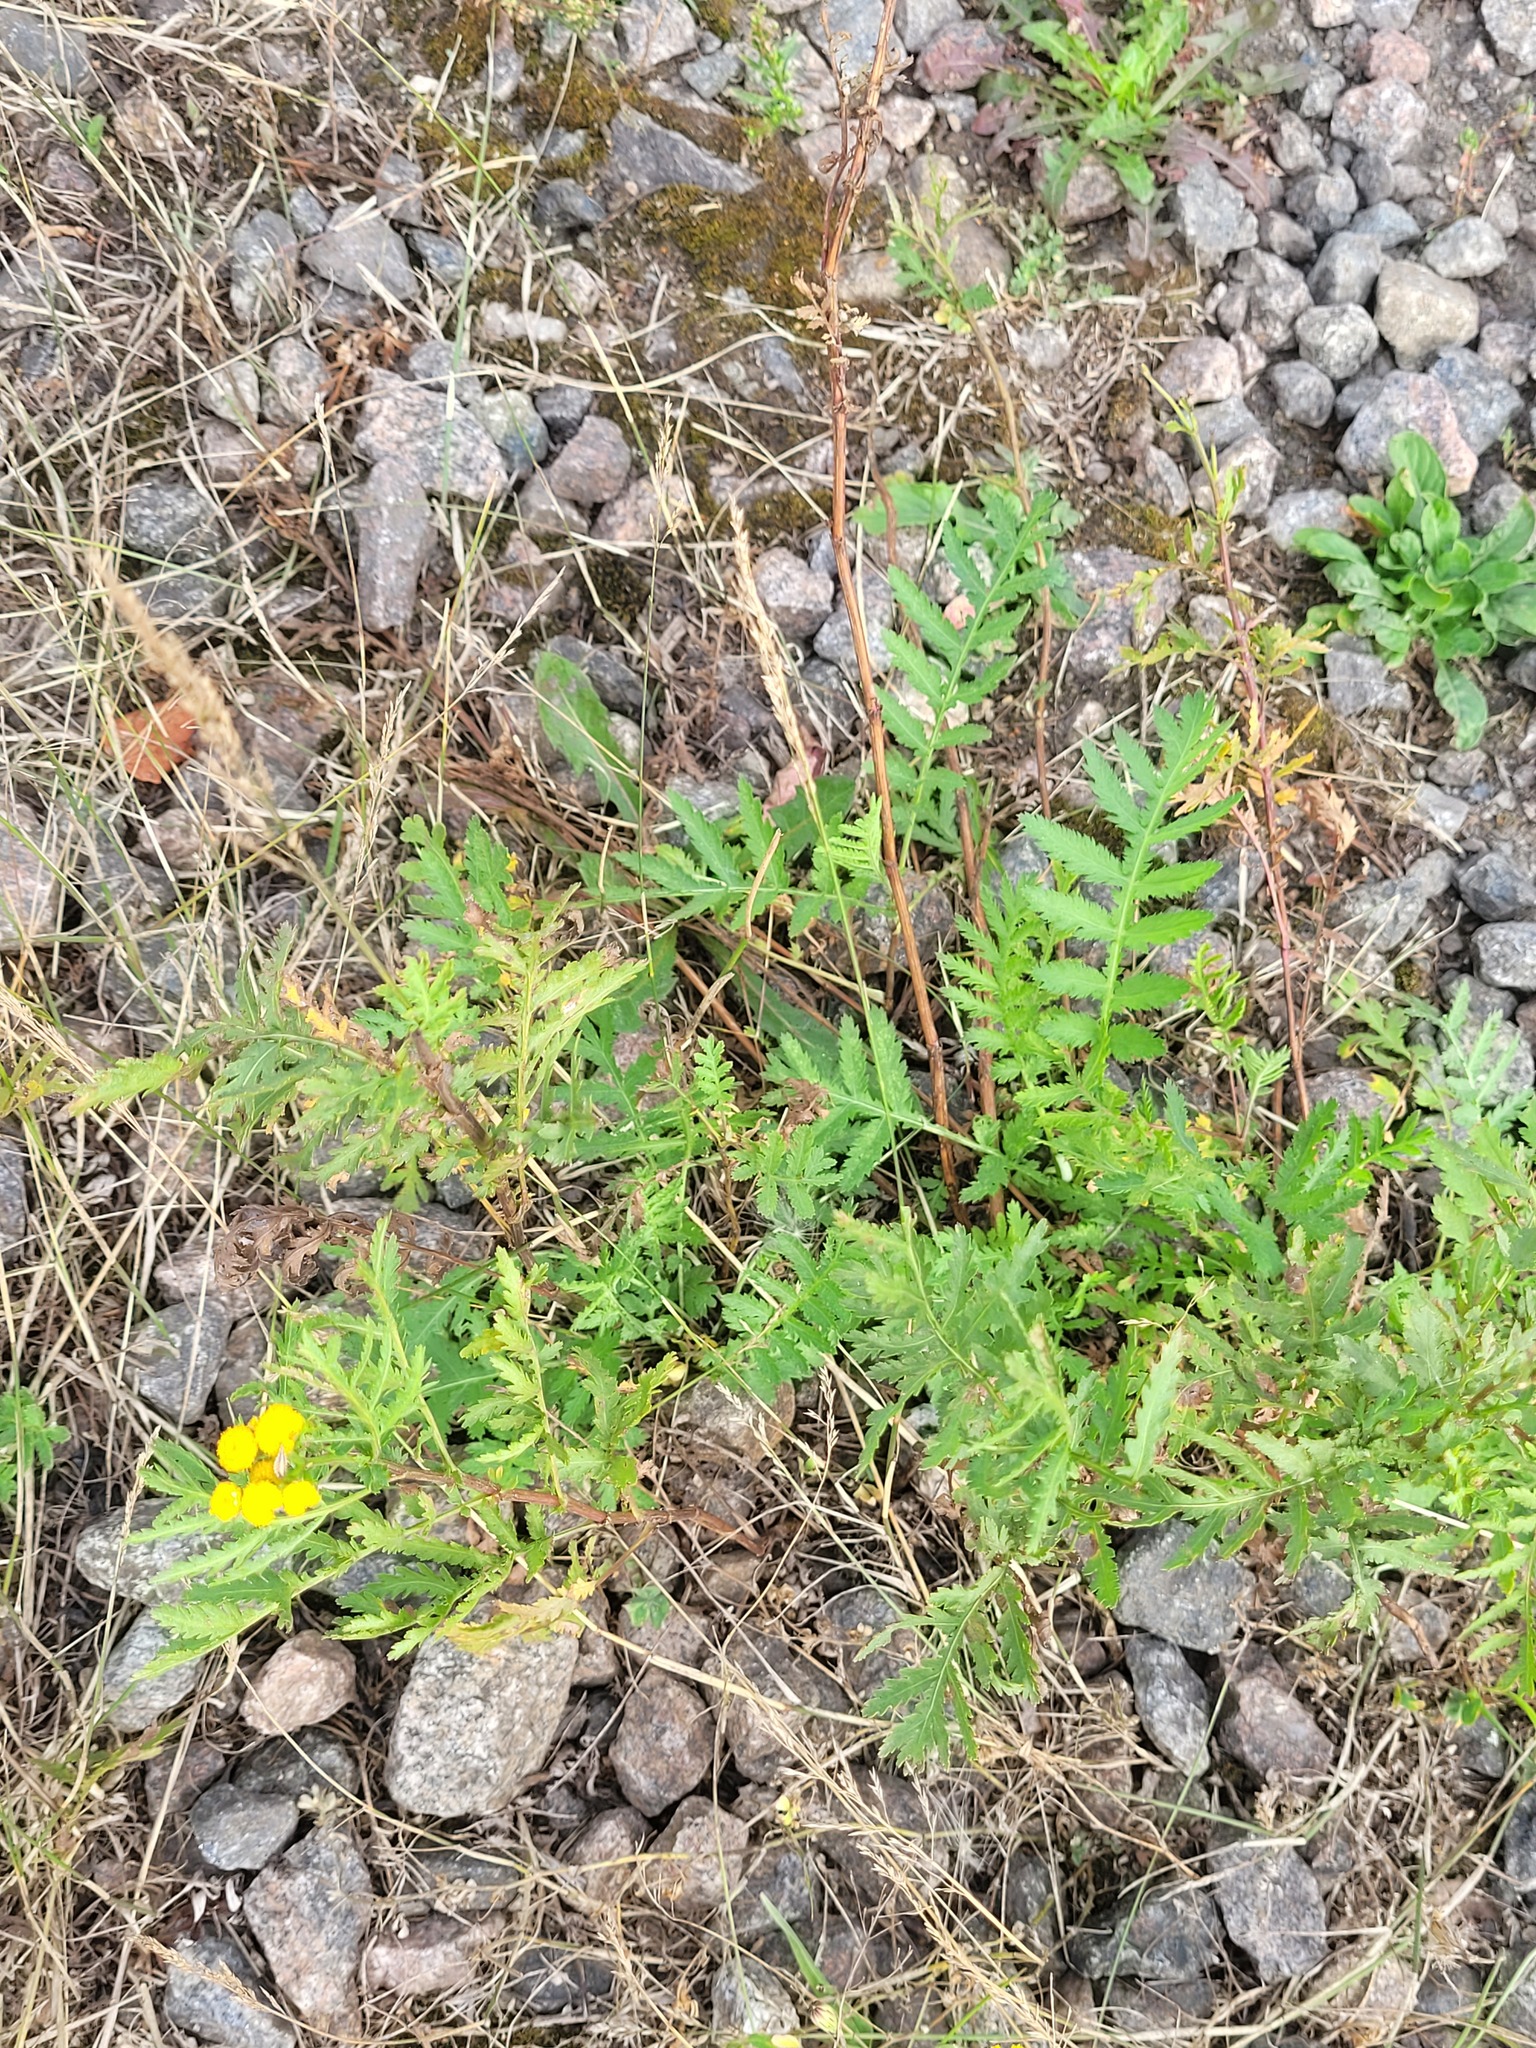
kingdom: Plantae
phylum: Tracheophyta
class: Magnoliopsida
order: Asterales
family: Asteraceae
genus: Tanacetum
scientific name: Tanacetum vulgare
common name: Common tansy
